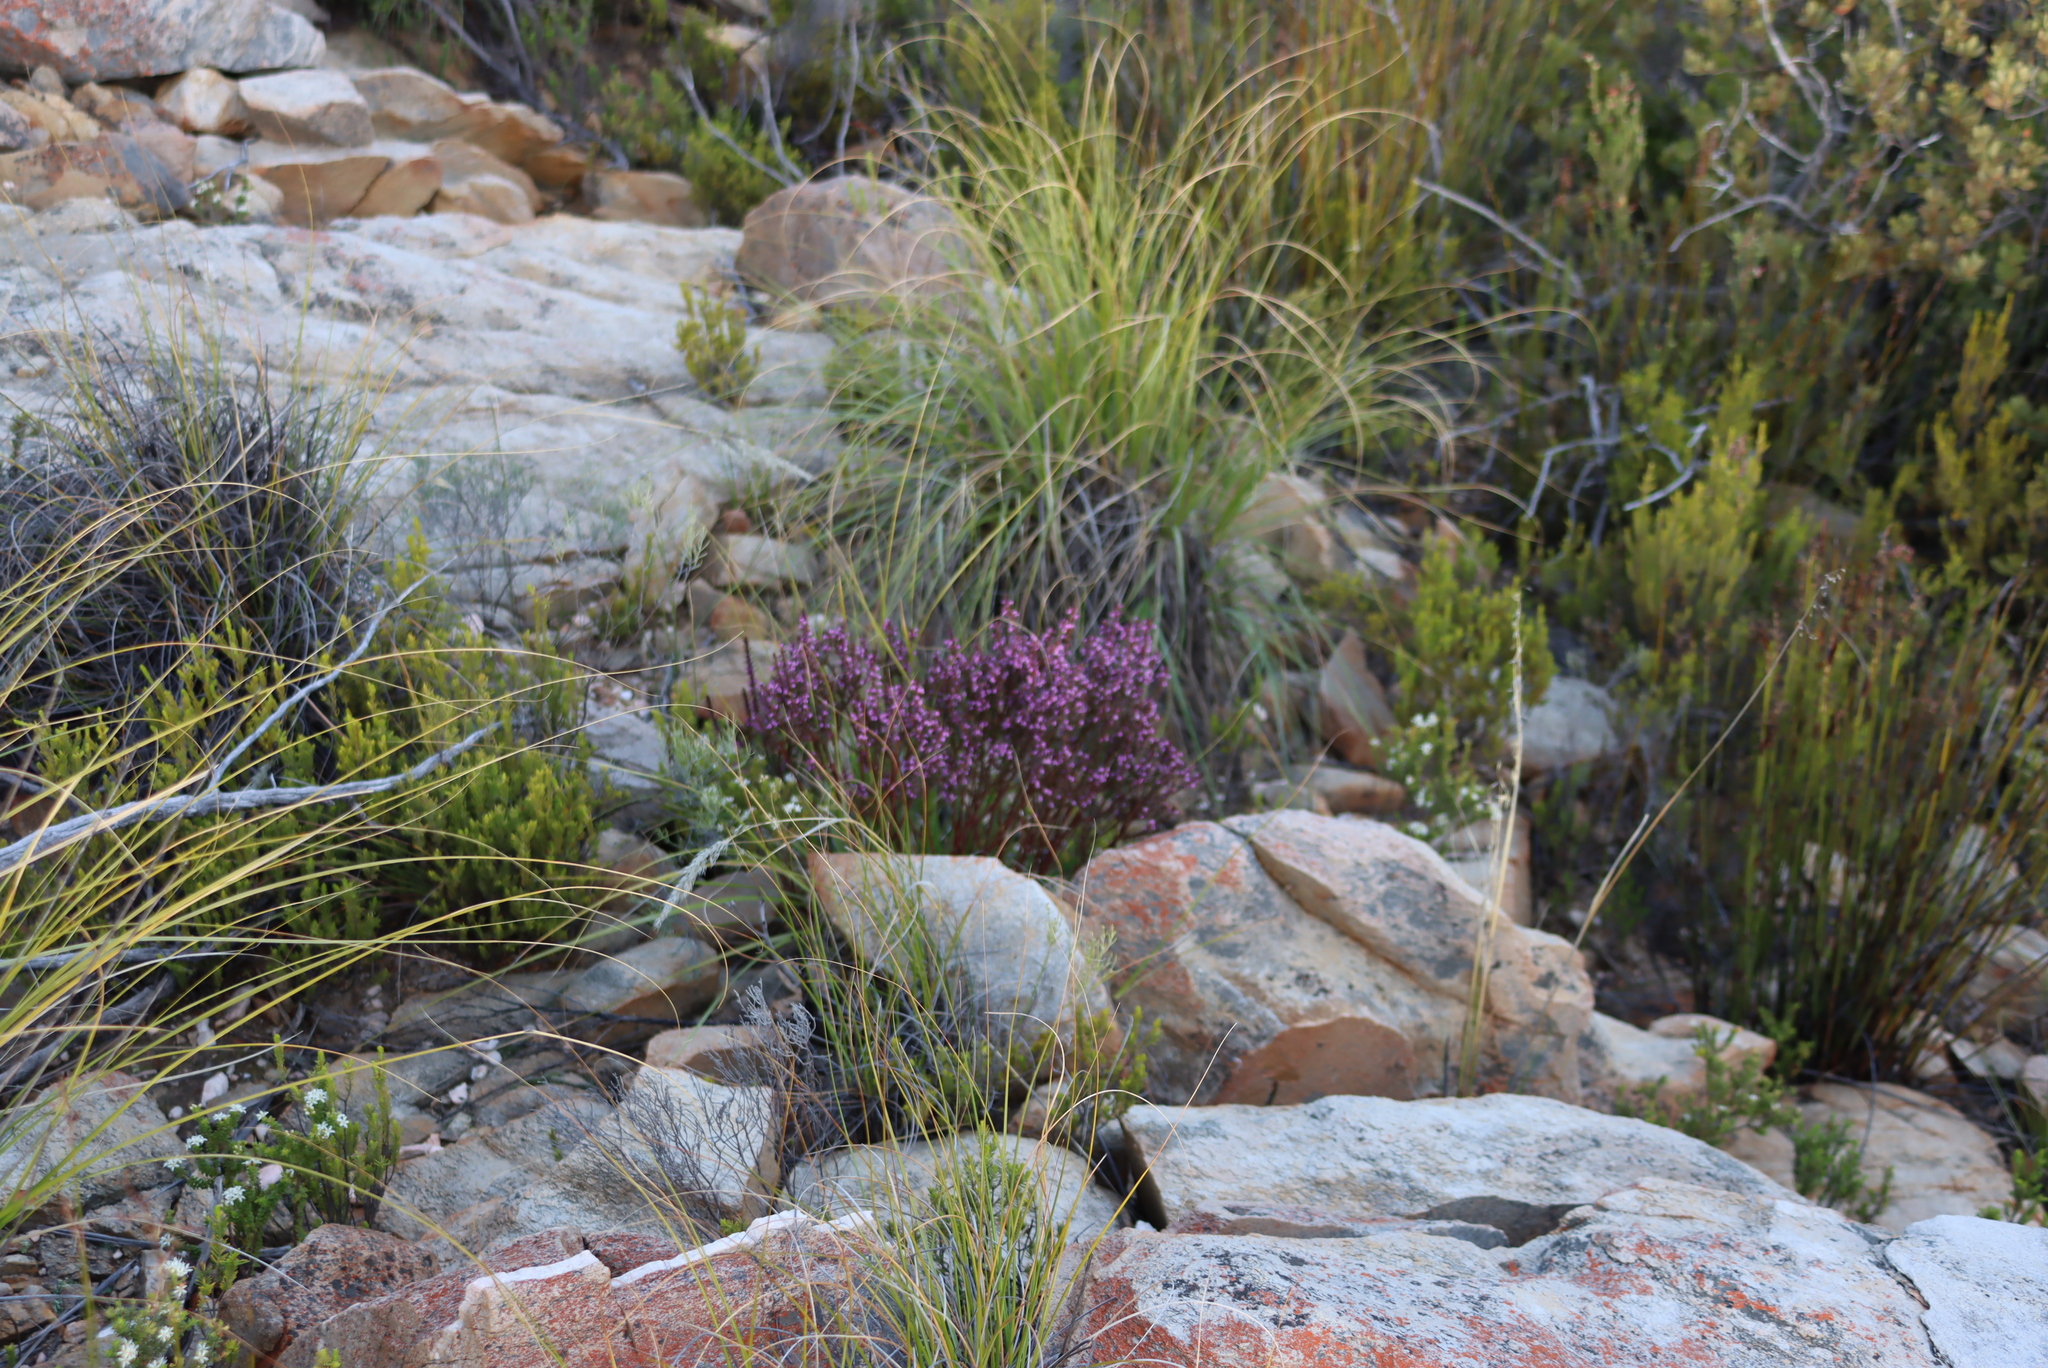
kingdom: Plantae
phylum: Tracheophyta
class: Magnoliopsida
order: Fabales
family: Polygalaceae
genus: Muraltia
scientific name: Muraltia juniperifolia
